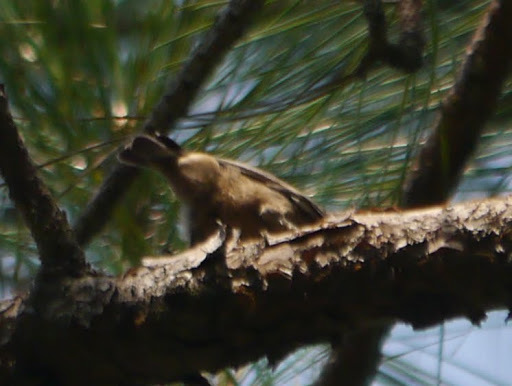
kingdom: Animalia
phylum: Chordata
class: Aves
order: Passeriformes
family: Sittidae
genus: Sitta
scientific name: Sitta pusilla
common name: Brown-headed nuthatch
